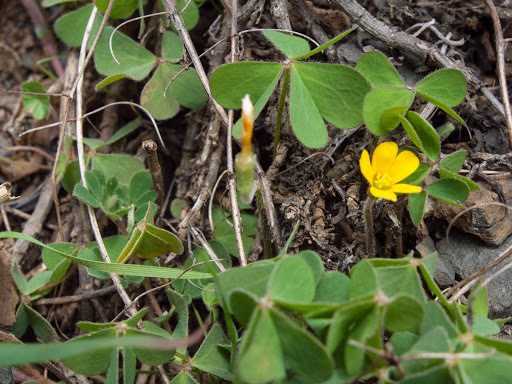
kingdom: Plantae
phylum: Tracheophyta
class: Magnoliopsida
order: Oxalidales
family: Oxalidaceae
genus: Oxalis
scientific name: Oxalis corniculata
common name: Procumbent yellow-sorrel
